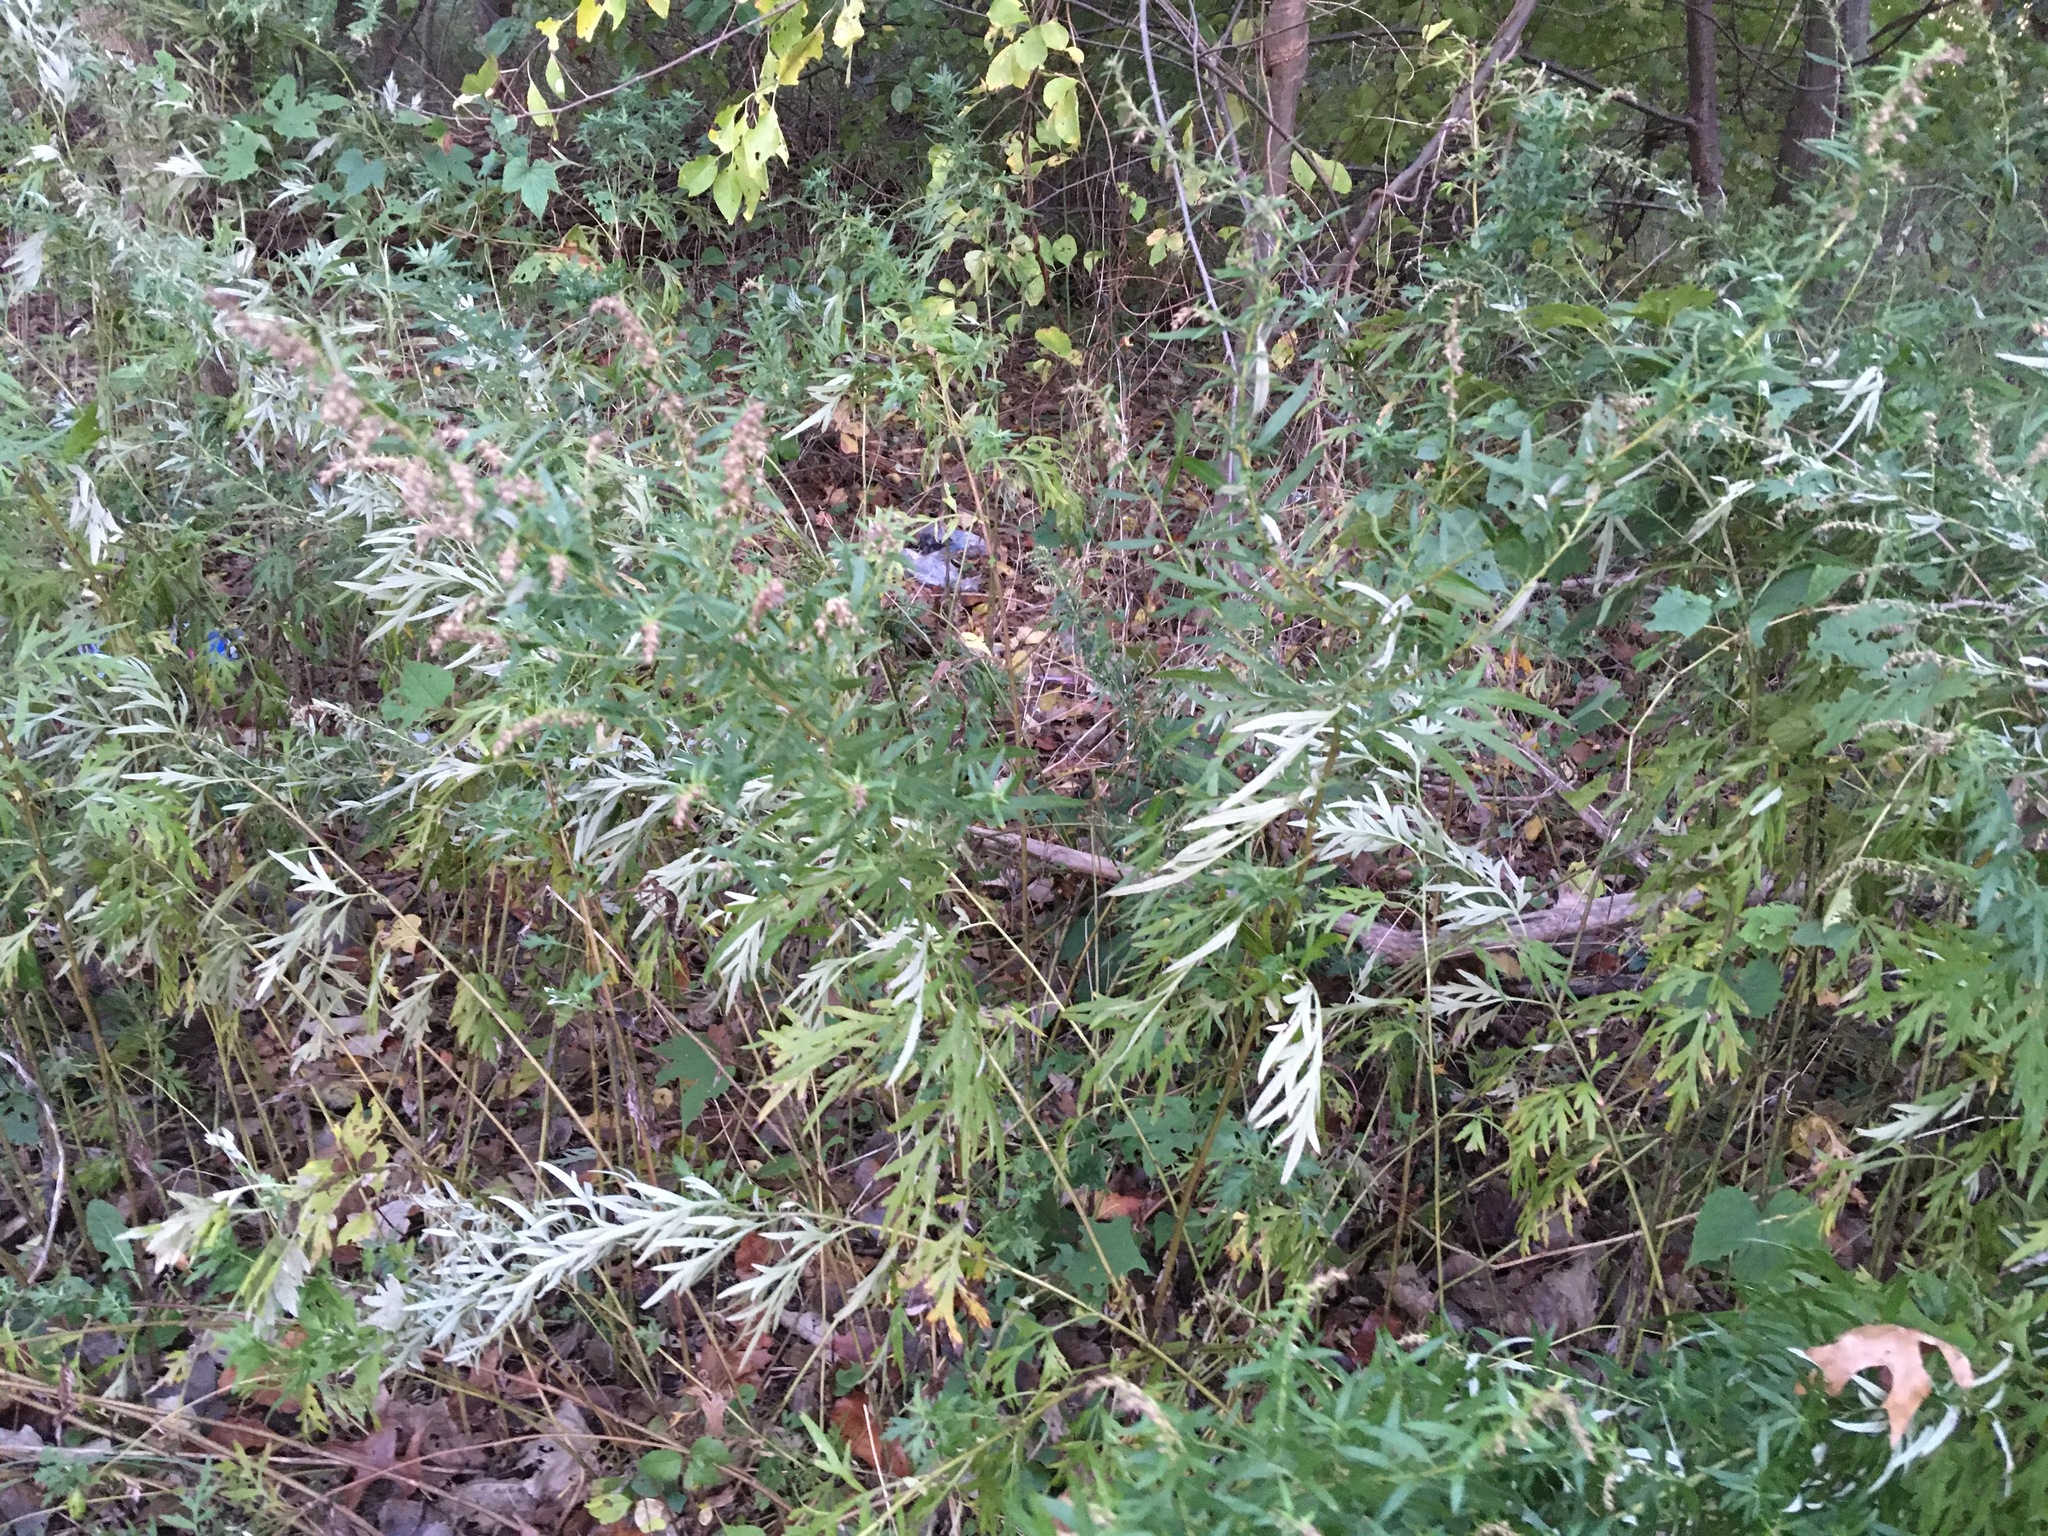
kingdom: Plantae
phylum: Tracheophyta
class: Magnoliopsida
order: Asterales
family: Asteraceae
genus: Artemisia
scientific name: Artemisia vulgaris
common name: Mugwort
